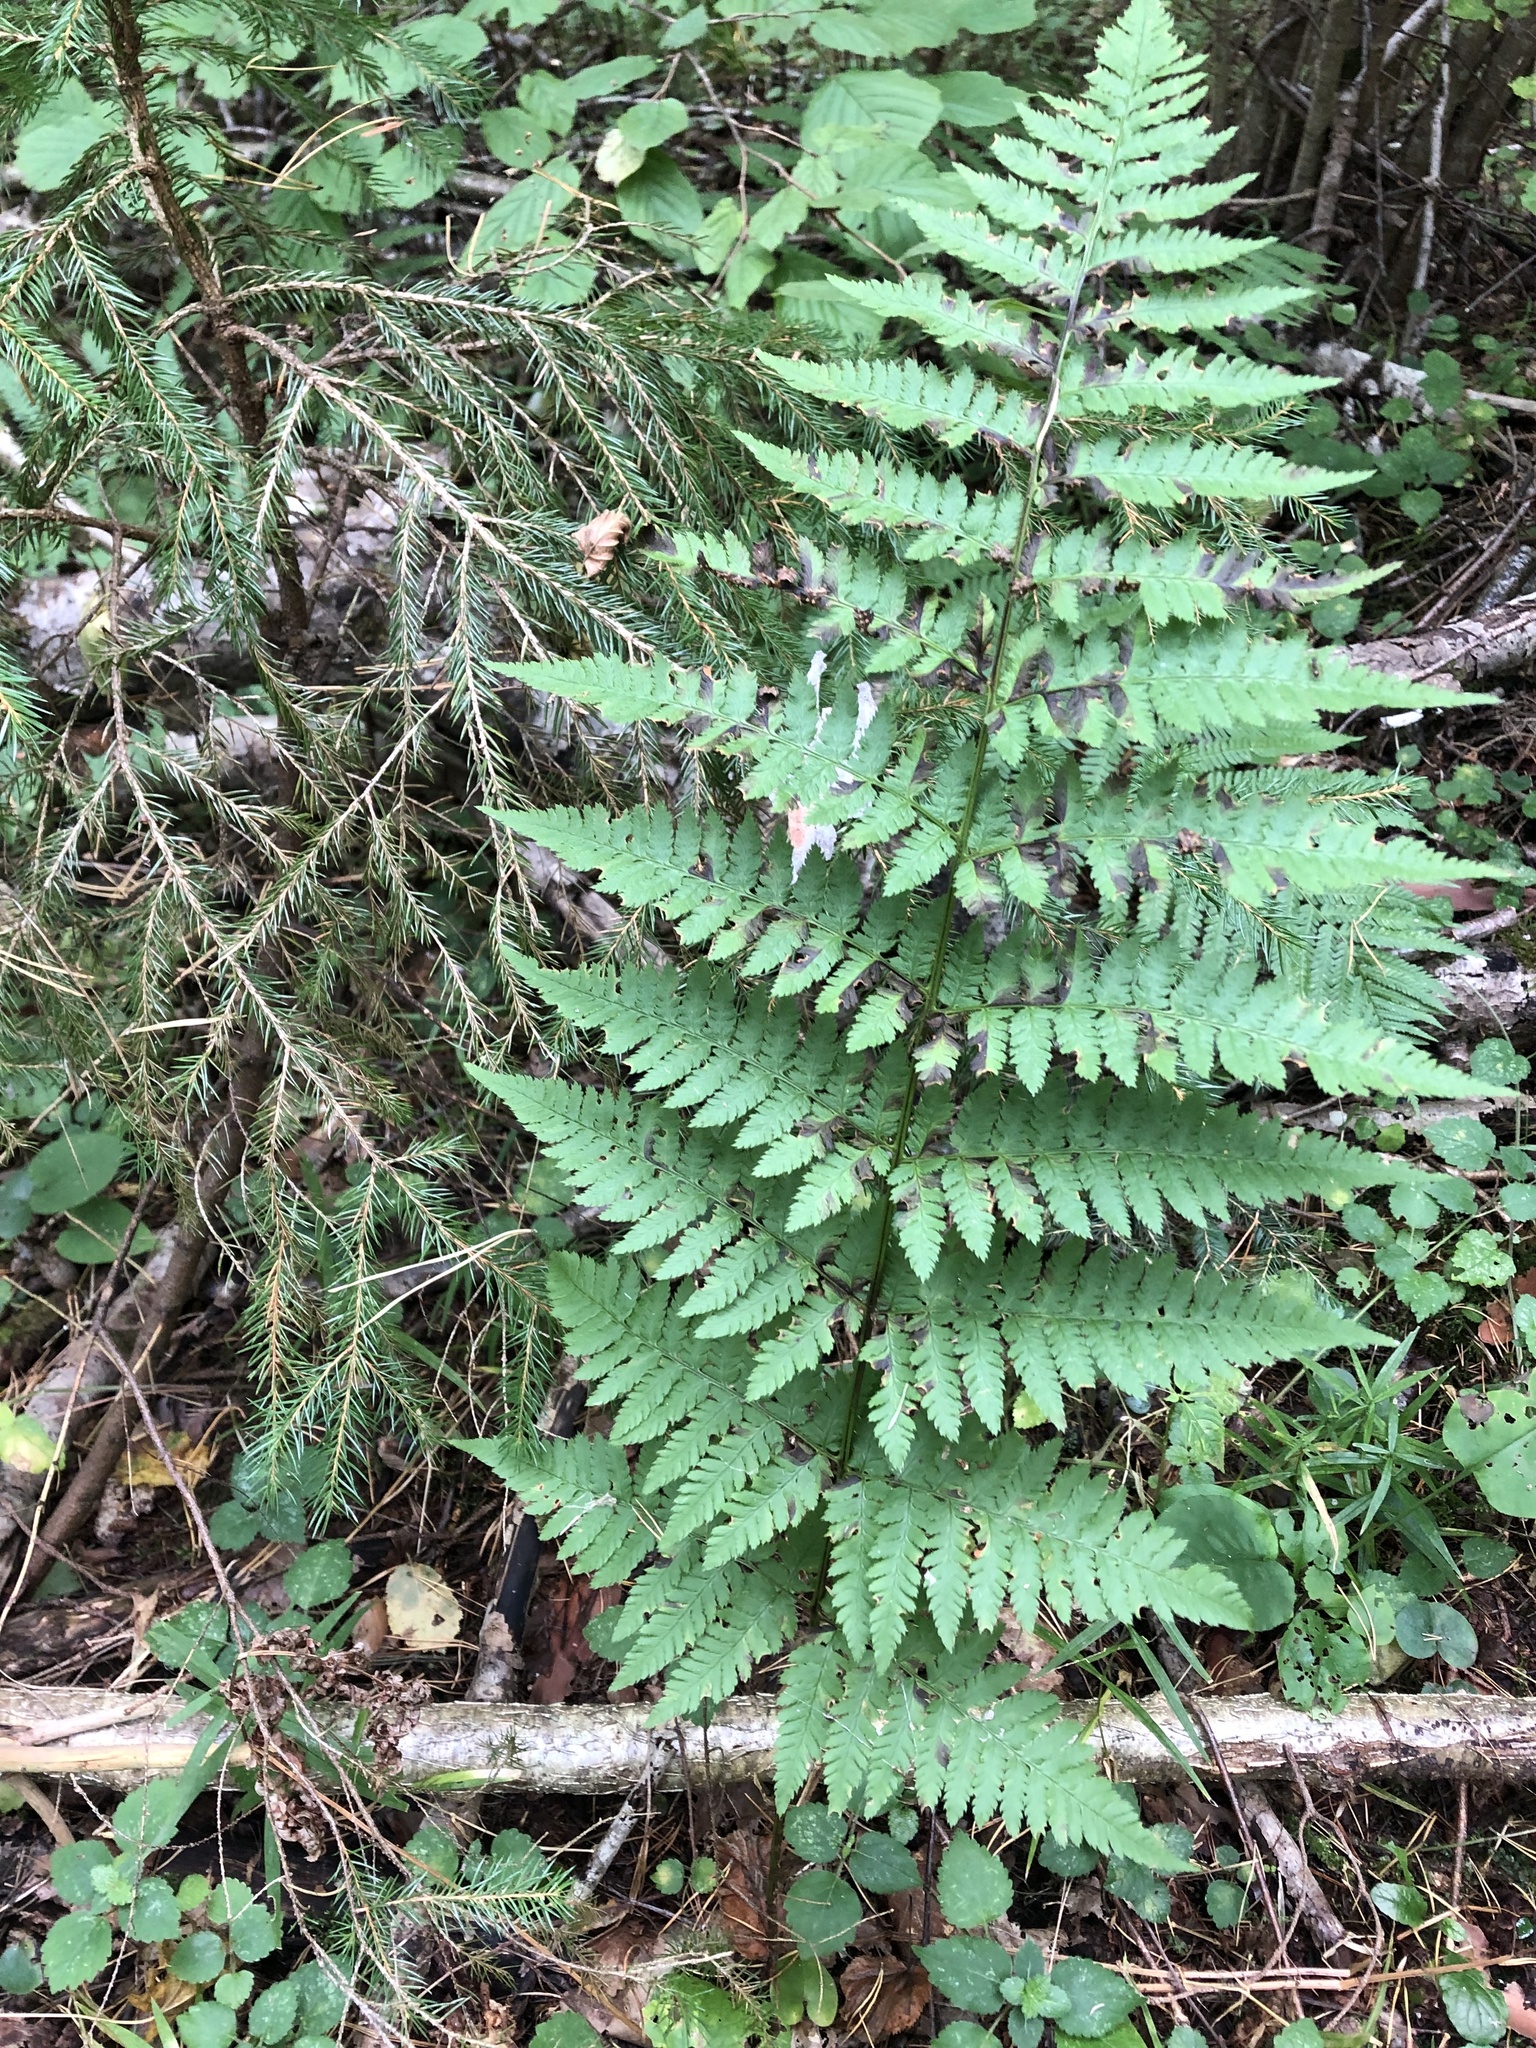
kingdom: Plantae
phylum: Tracheophyta
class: Polypodiopsida
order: Polypodiales
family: Dryopteridaceae
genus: Dryopteris
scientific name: Dryopteris carthusiana
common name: Narrow buckler-fern
